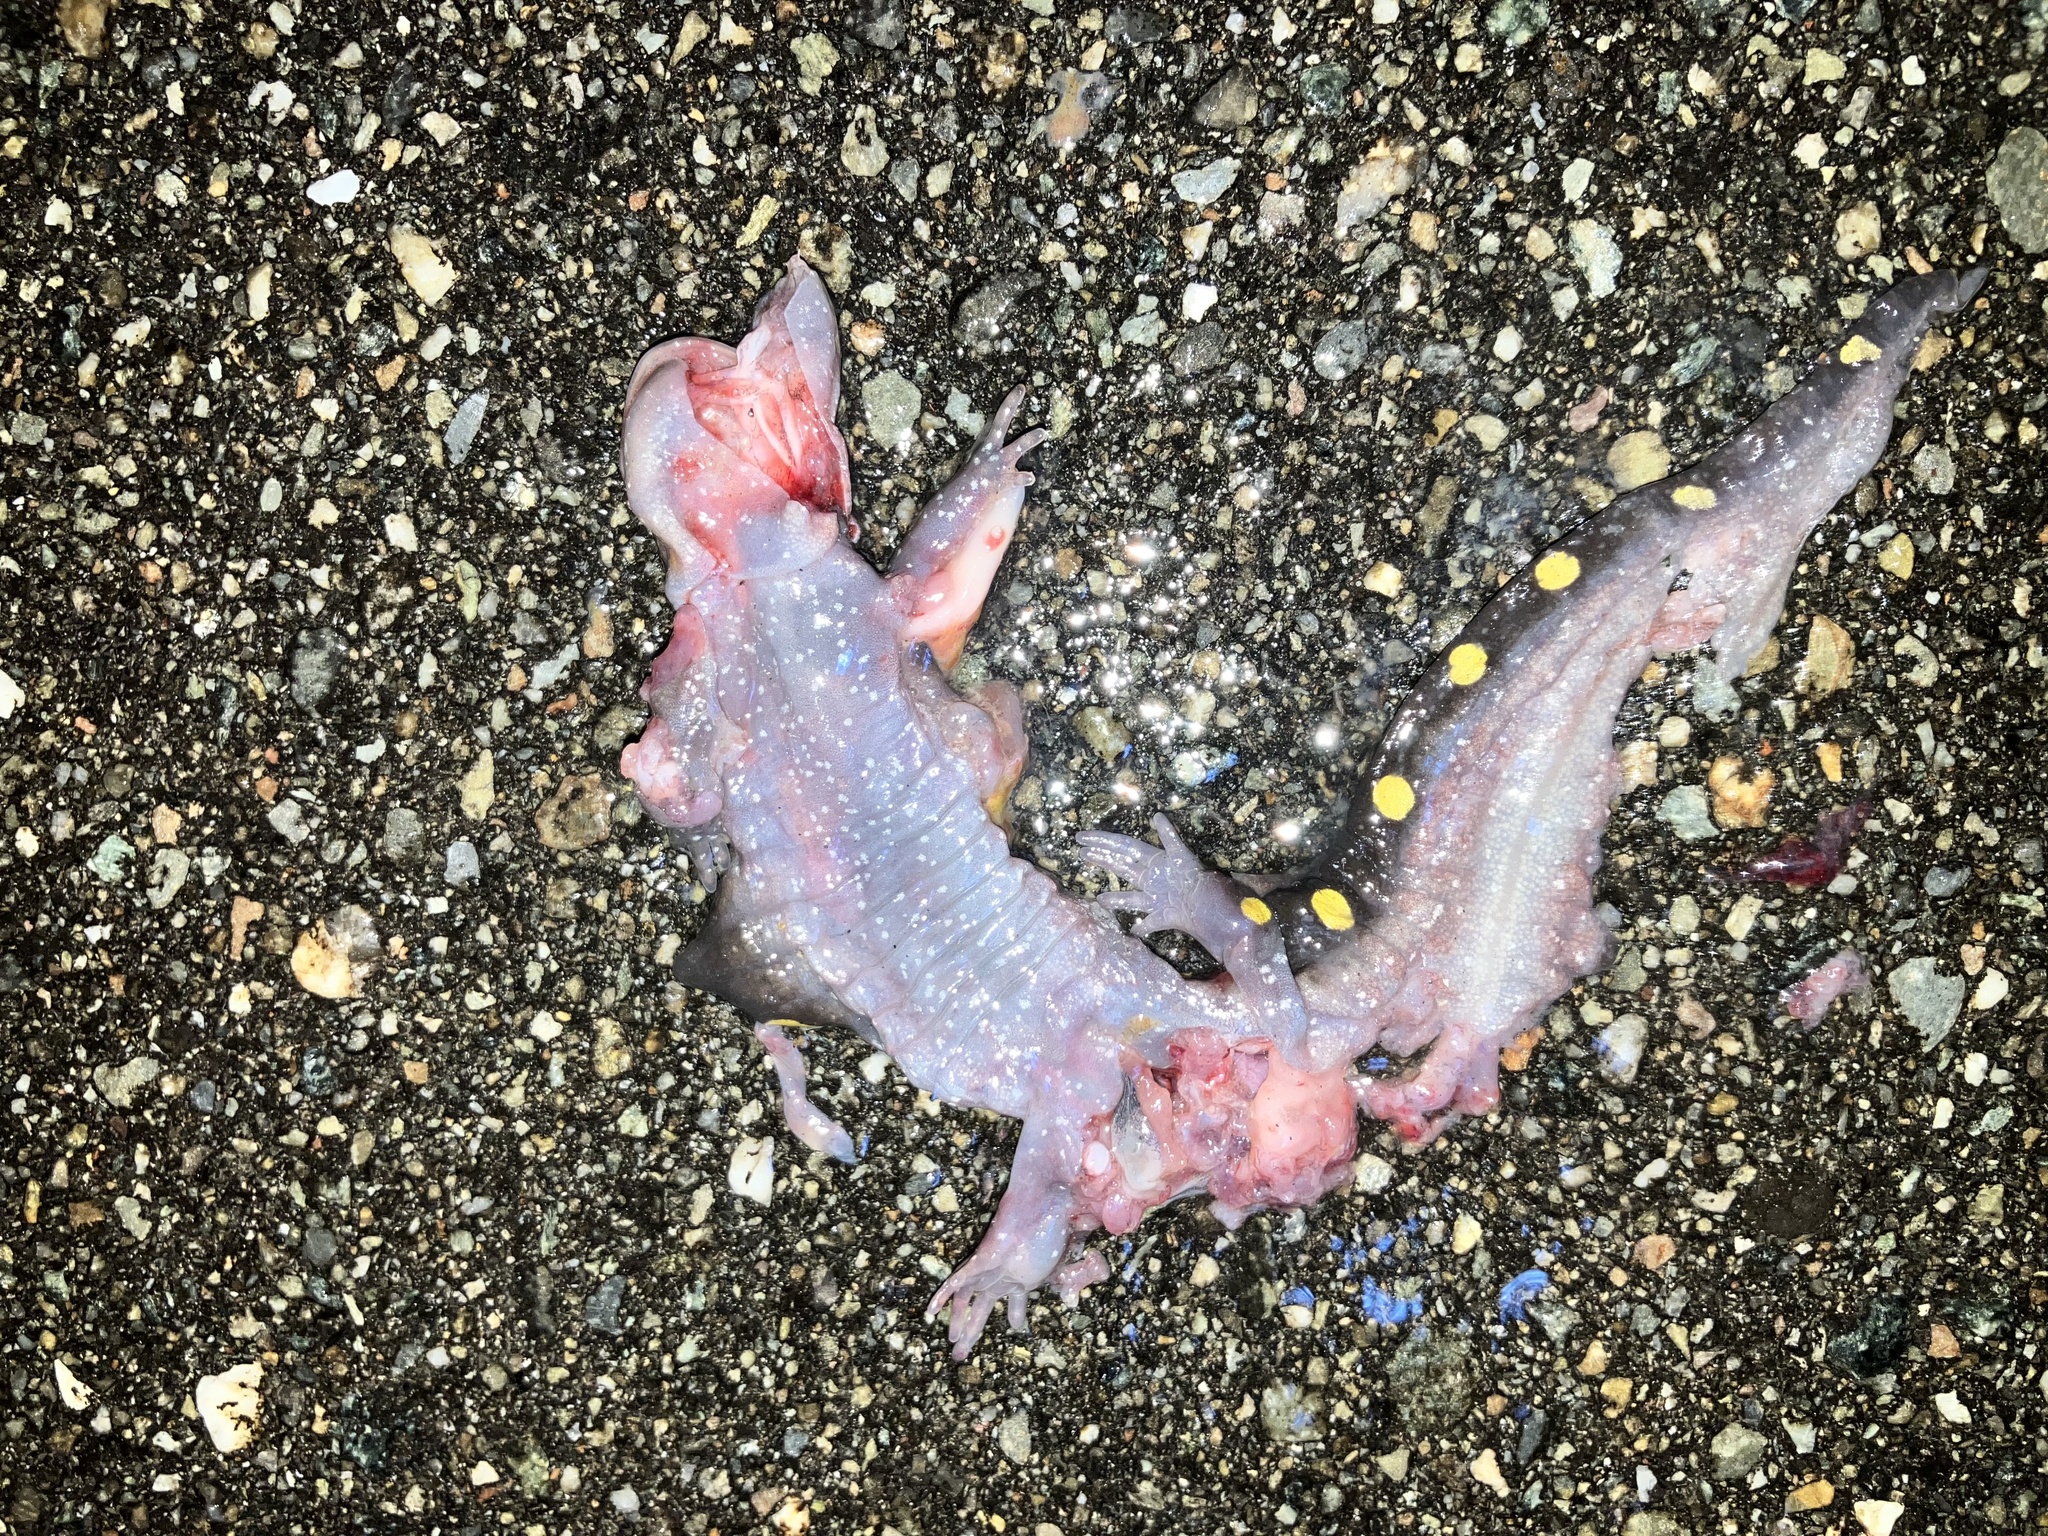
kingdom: Animalia
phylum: Chordata
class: Amphibia
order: Caudata
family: Ambystomatidae
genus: Ambystoma
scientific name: Ambystoma maculatum
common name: Spotted salamander
